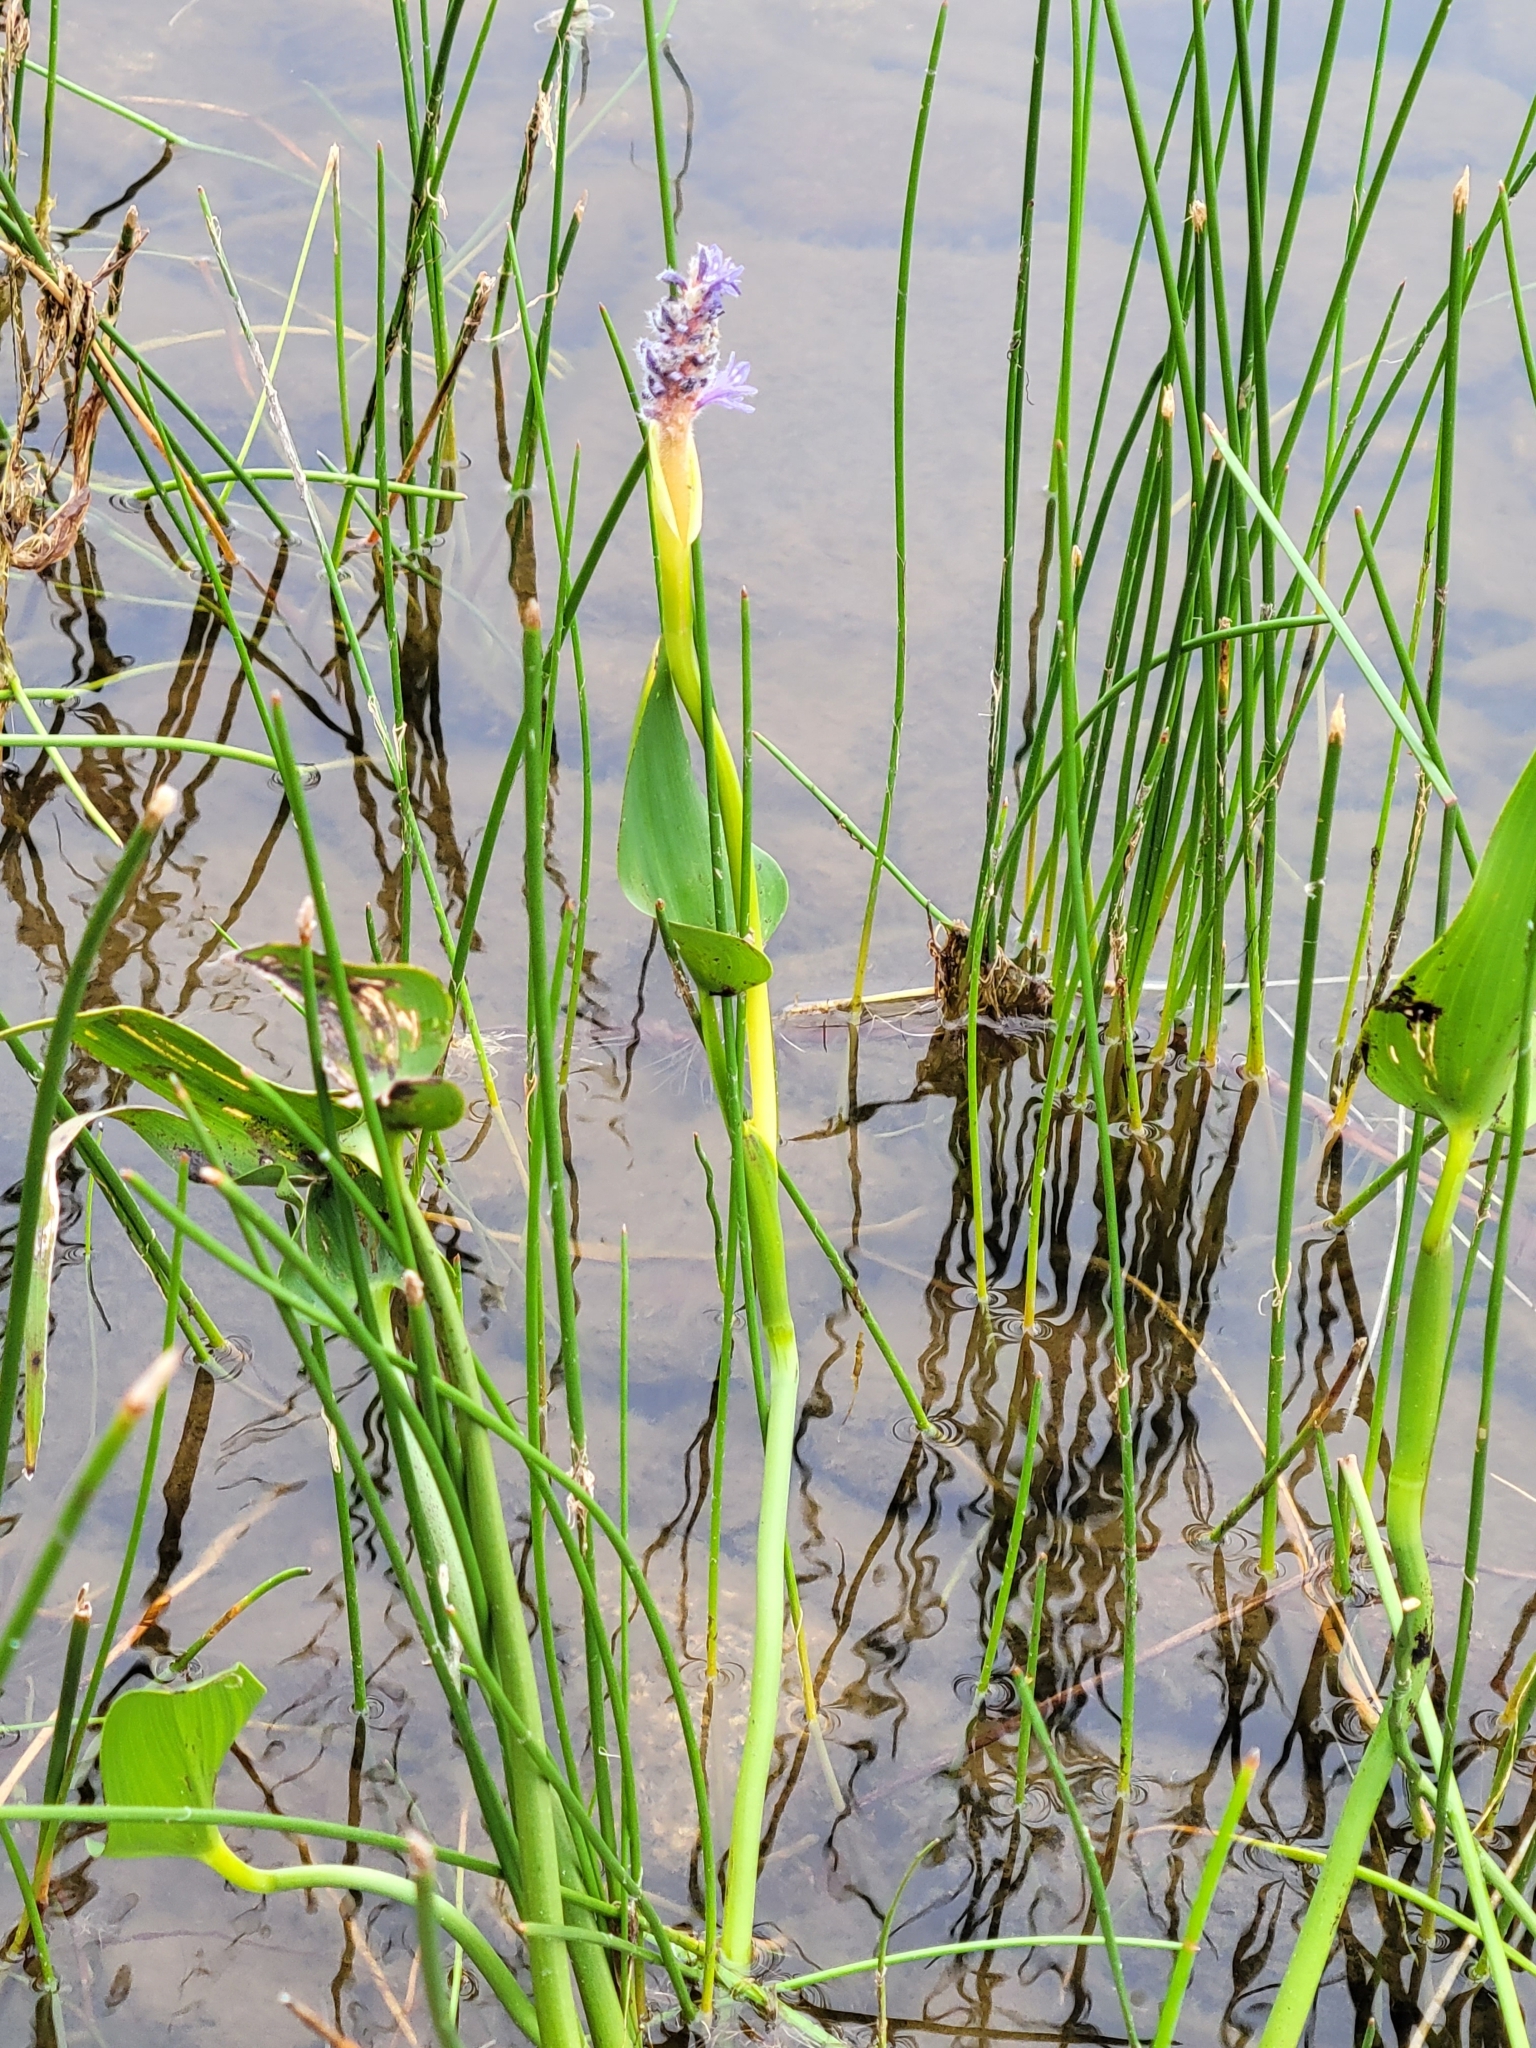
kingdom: Plantae
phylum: Tracheophyta
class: Liliopsida
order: Commelinales
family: Pontederiaceae
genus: Pontederia
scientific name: Pontederia cordata
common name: Pickerelweed
